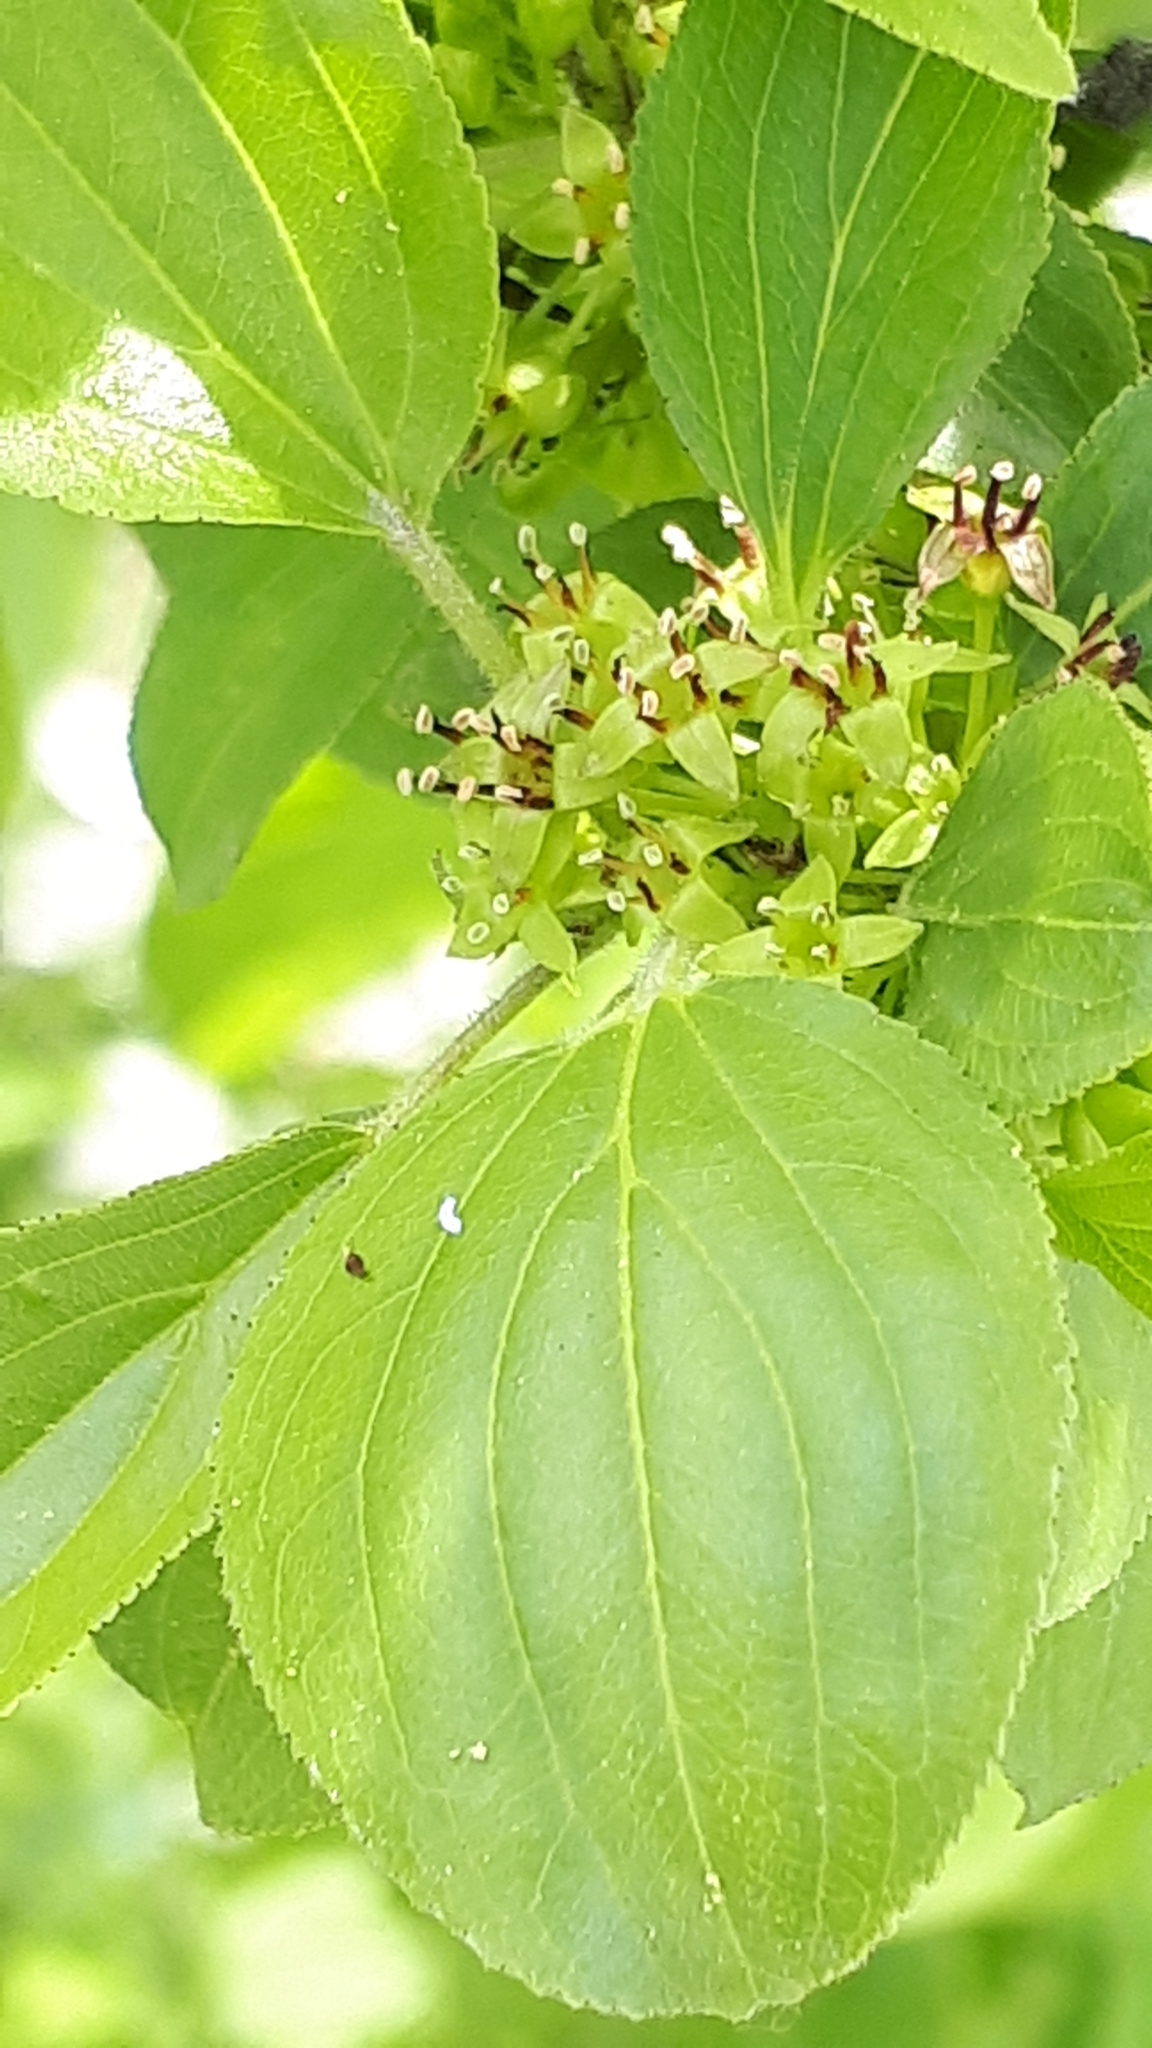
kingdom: Plantae
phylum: Tracheophyta
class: Magnoliopsida
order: Rosales
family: Rhamnaceae
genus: Rhamnus
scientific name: Rhamnus cathartica
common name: Common buckthorn
